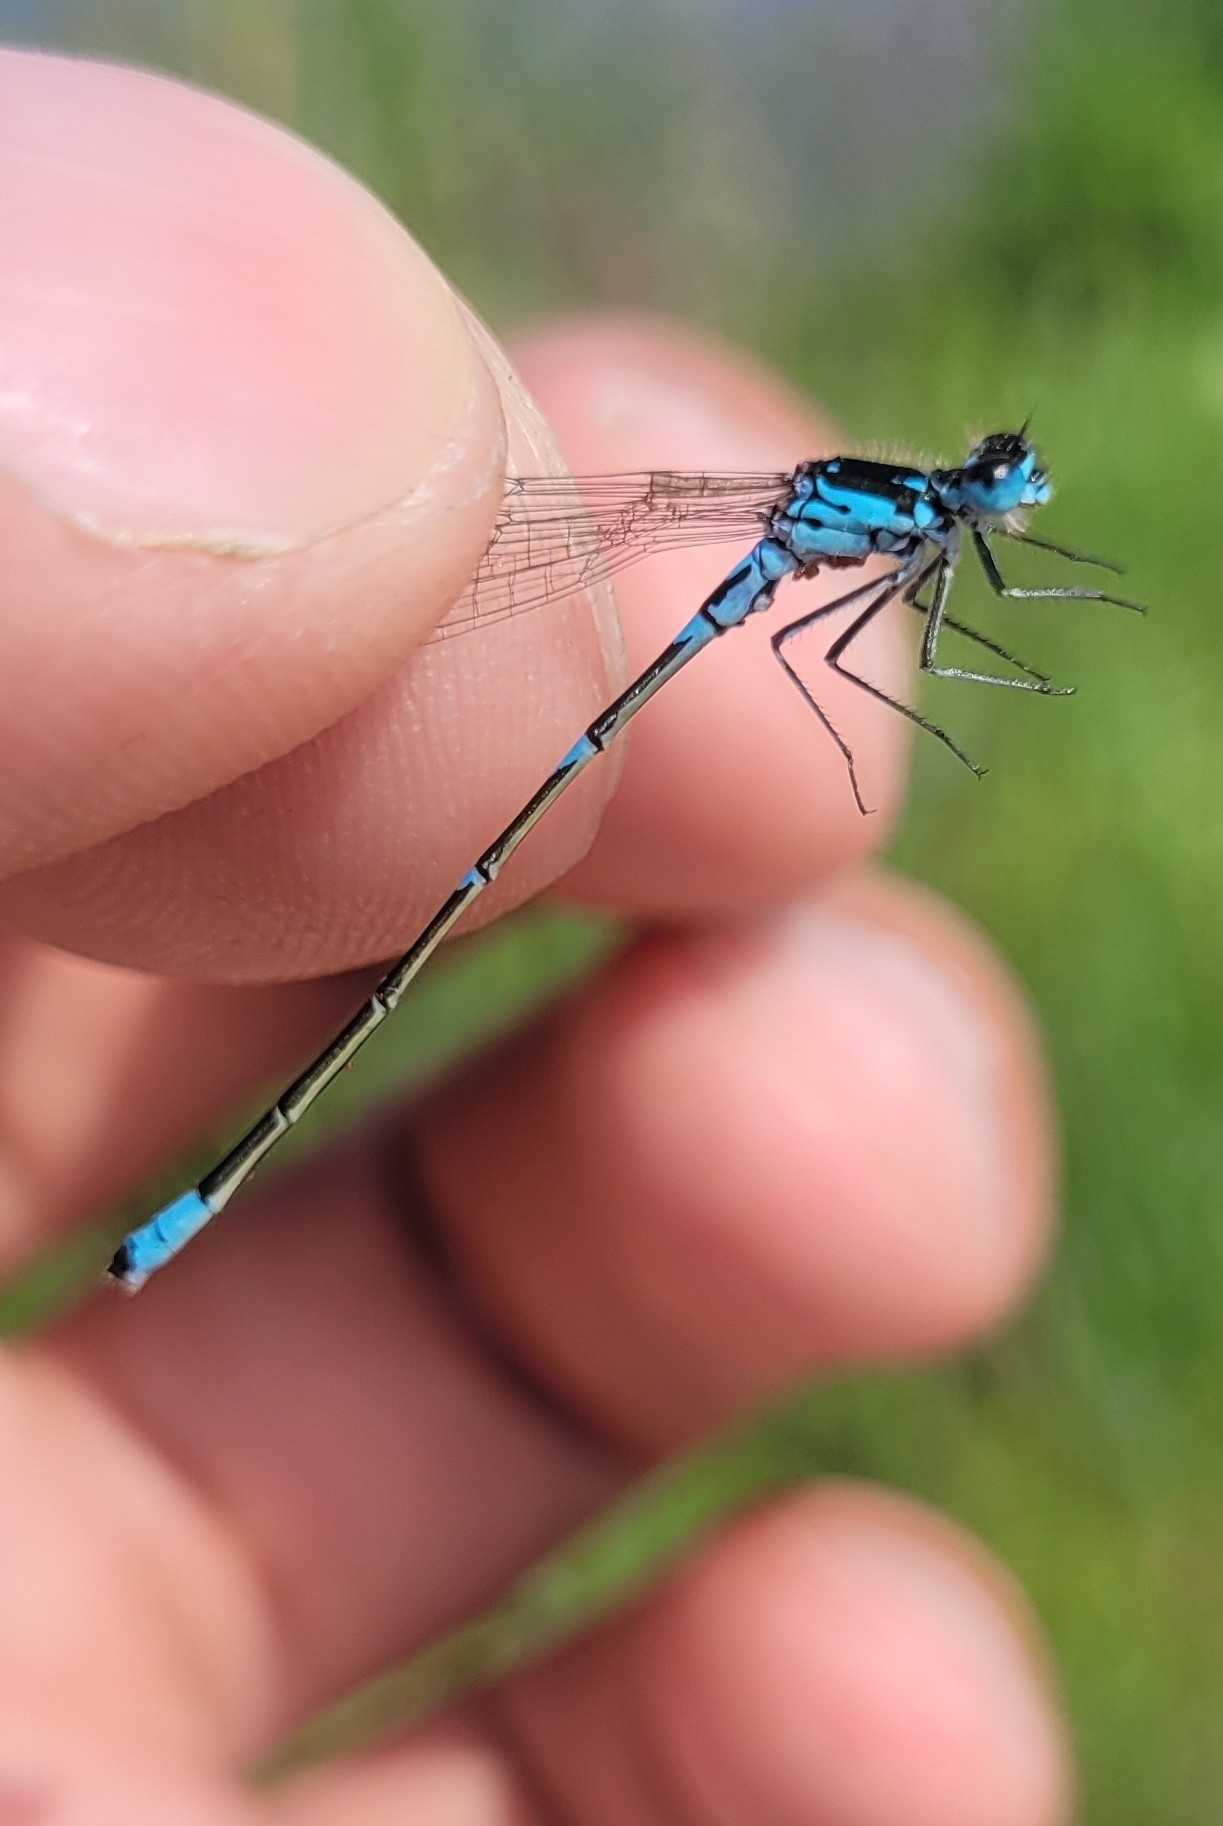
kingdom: Animalia
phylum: Arthropoda
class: Insecta
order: Odonata
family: Coenagrionidae
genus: Coenagrion
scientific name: Coenagrion pulchellum
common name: Variable bluet
